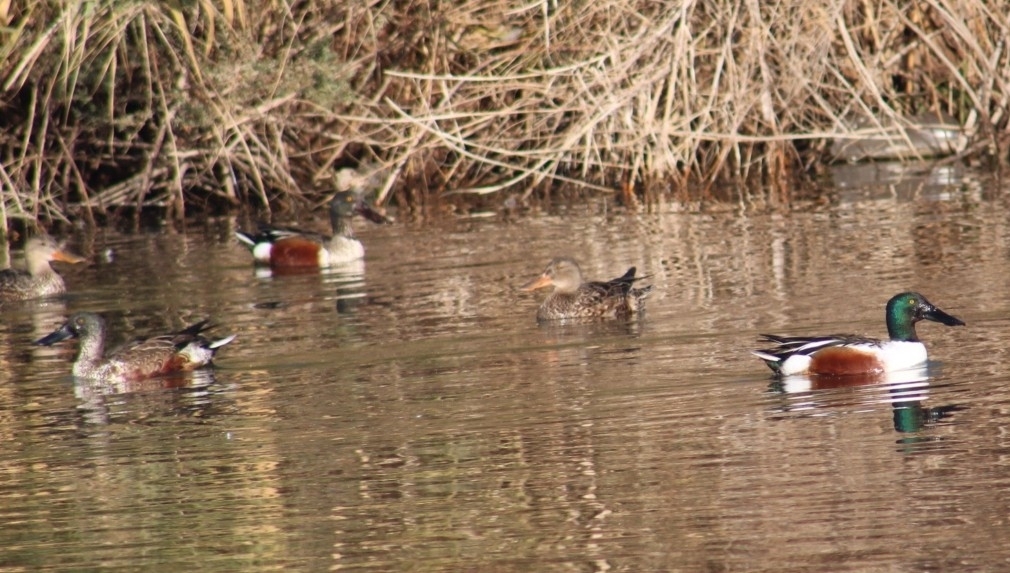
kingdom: Animalia
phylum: Chordata
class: Aves
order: Anseriformes
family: Anatidae
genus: Spatula
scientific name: Spatula clypeata
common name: Northern shoveler
